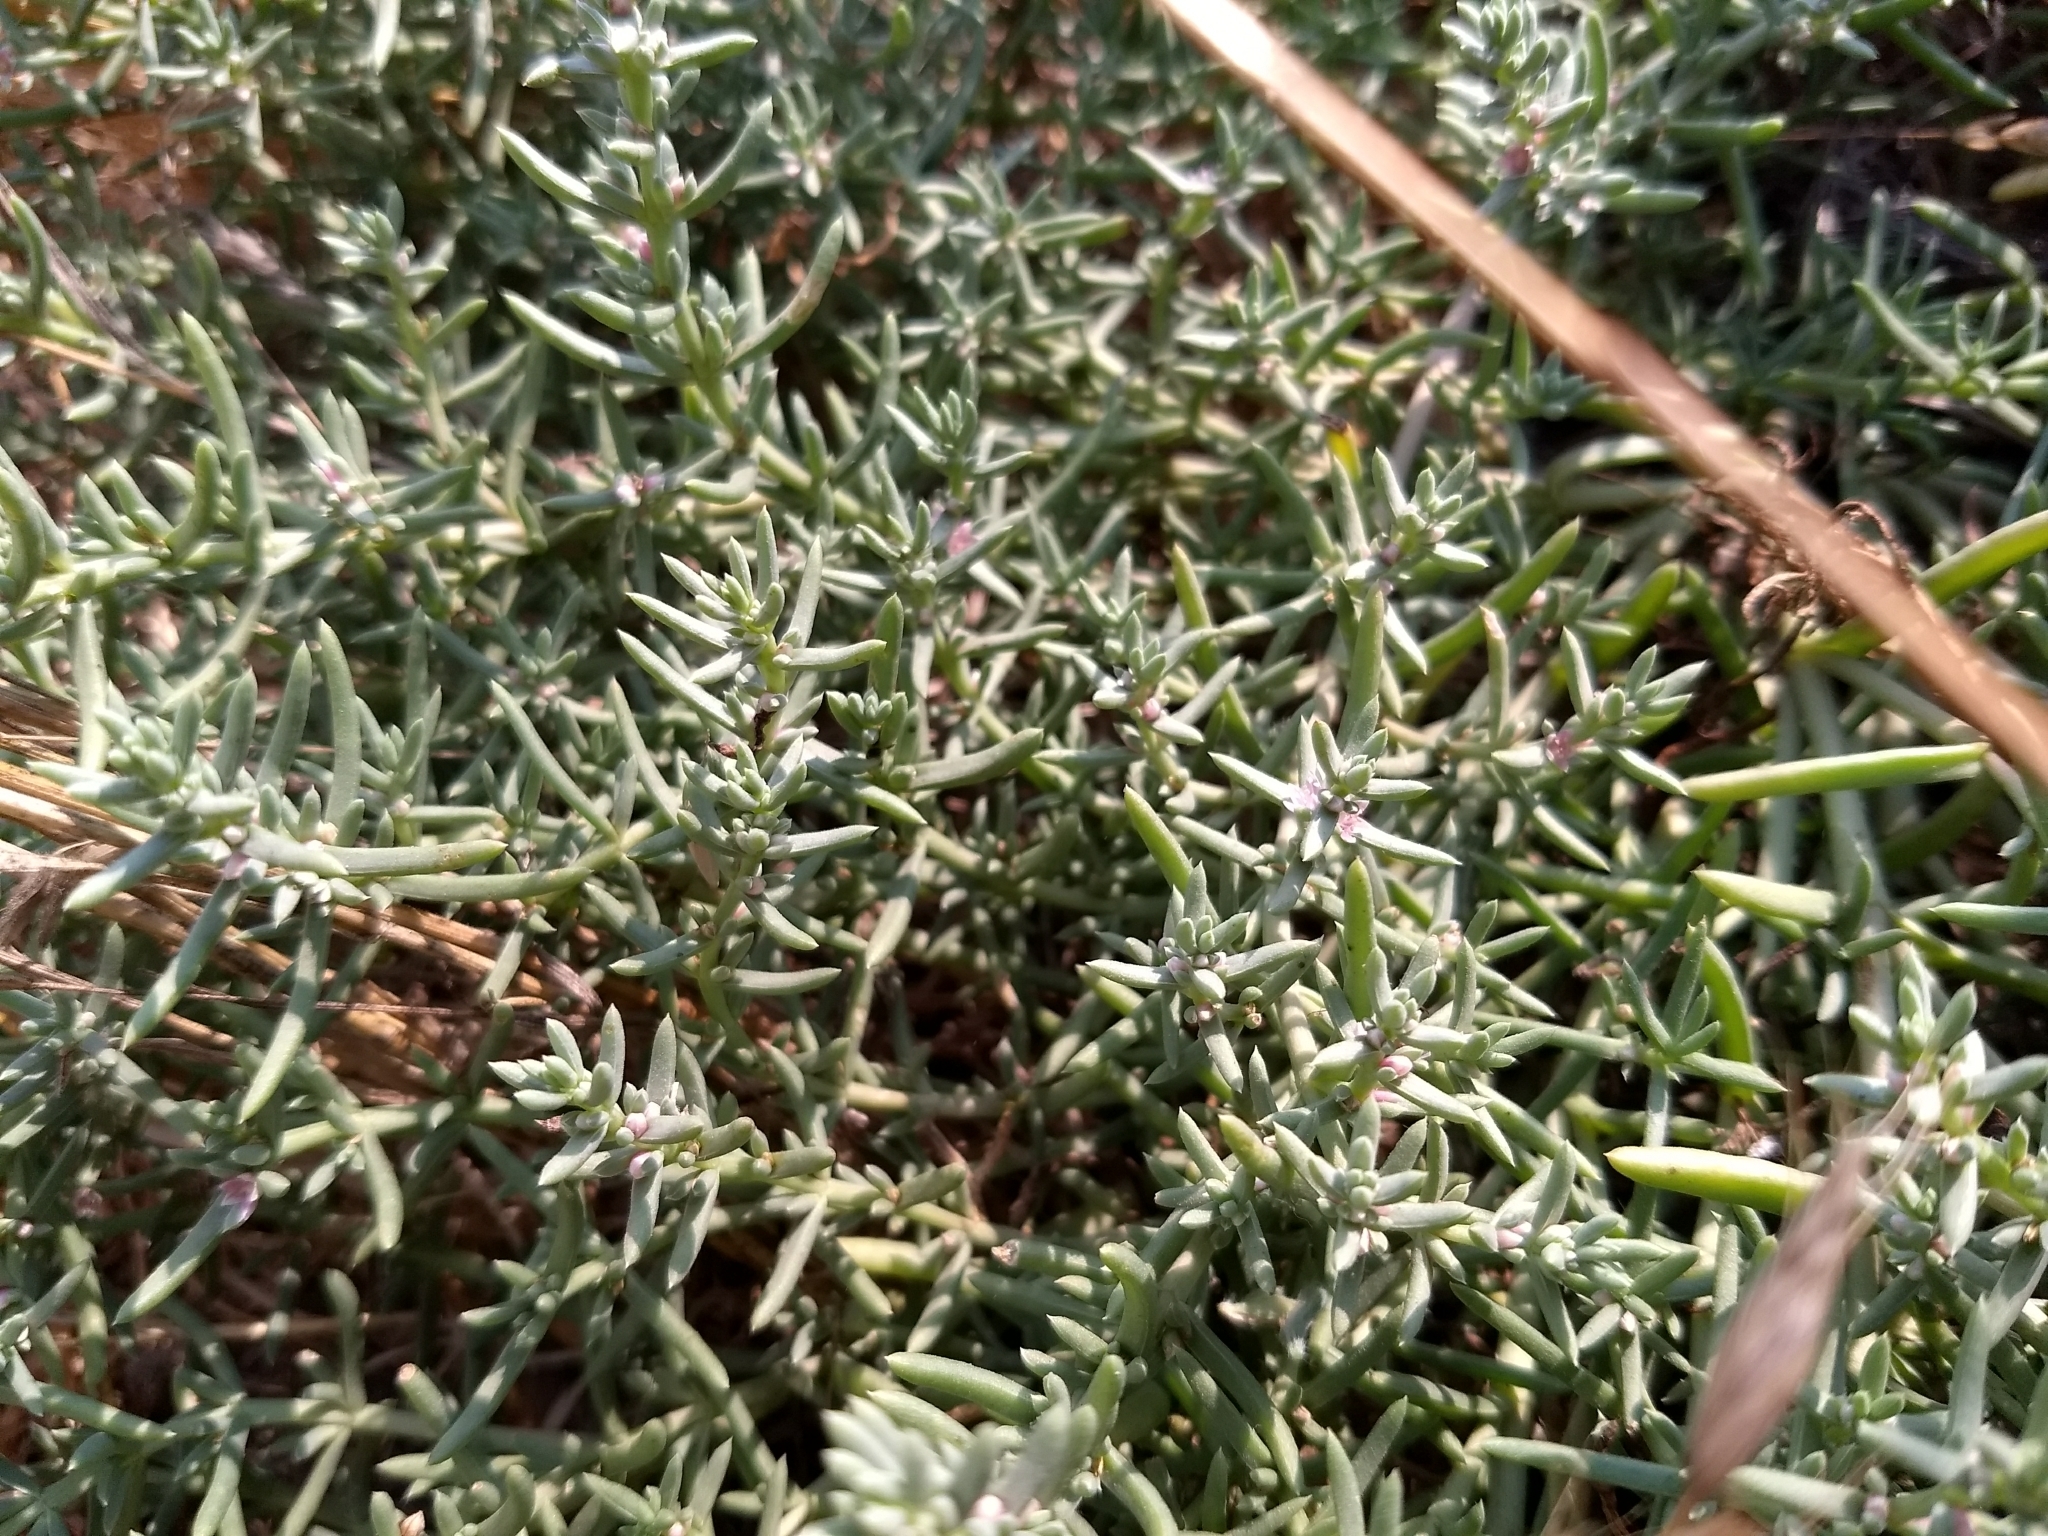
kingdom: Plantae
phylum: Tracheophyta
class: Magnoliopsida
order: Caryophyllales
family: Amaranthaceae
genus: Nitrophila
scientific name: Nitrophila occidentalis
